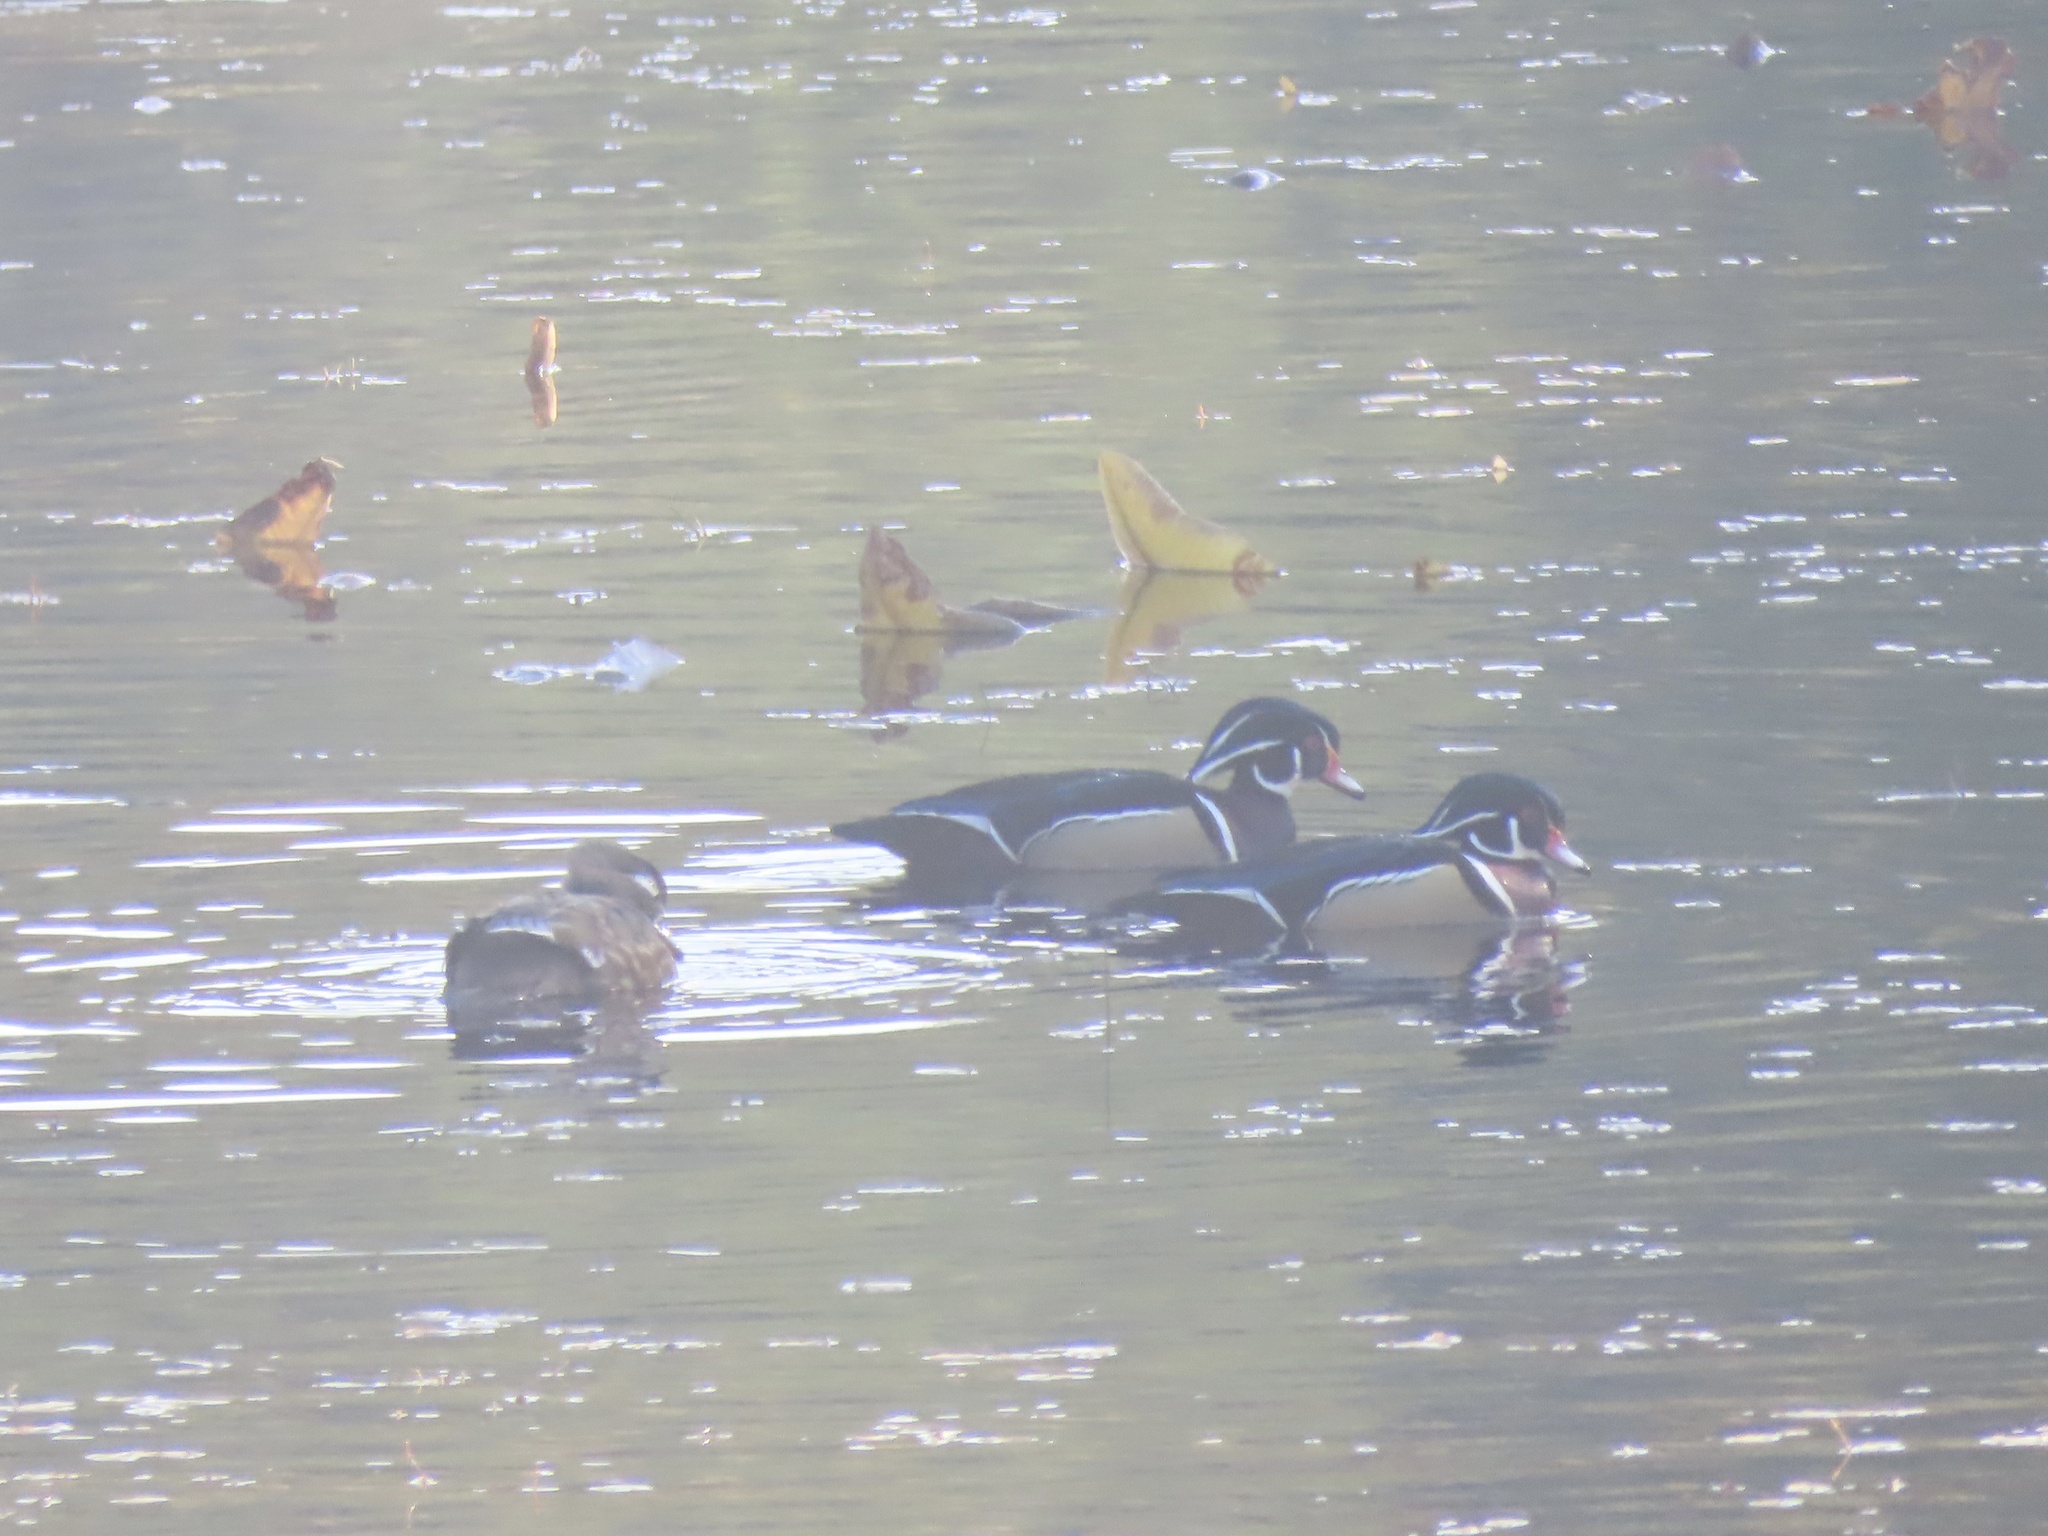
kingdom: Animalia
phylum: Chordata
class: Aves
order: Anseriformes
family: Anatidae
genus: Aix
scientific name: Aix sponsa
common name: Wood duck
